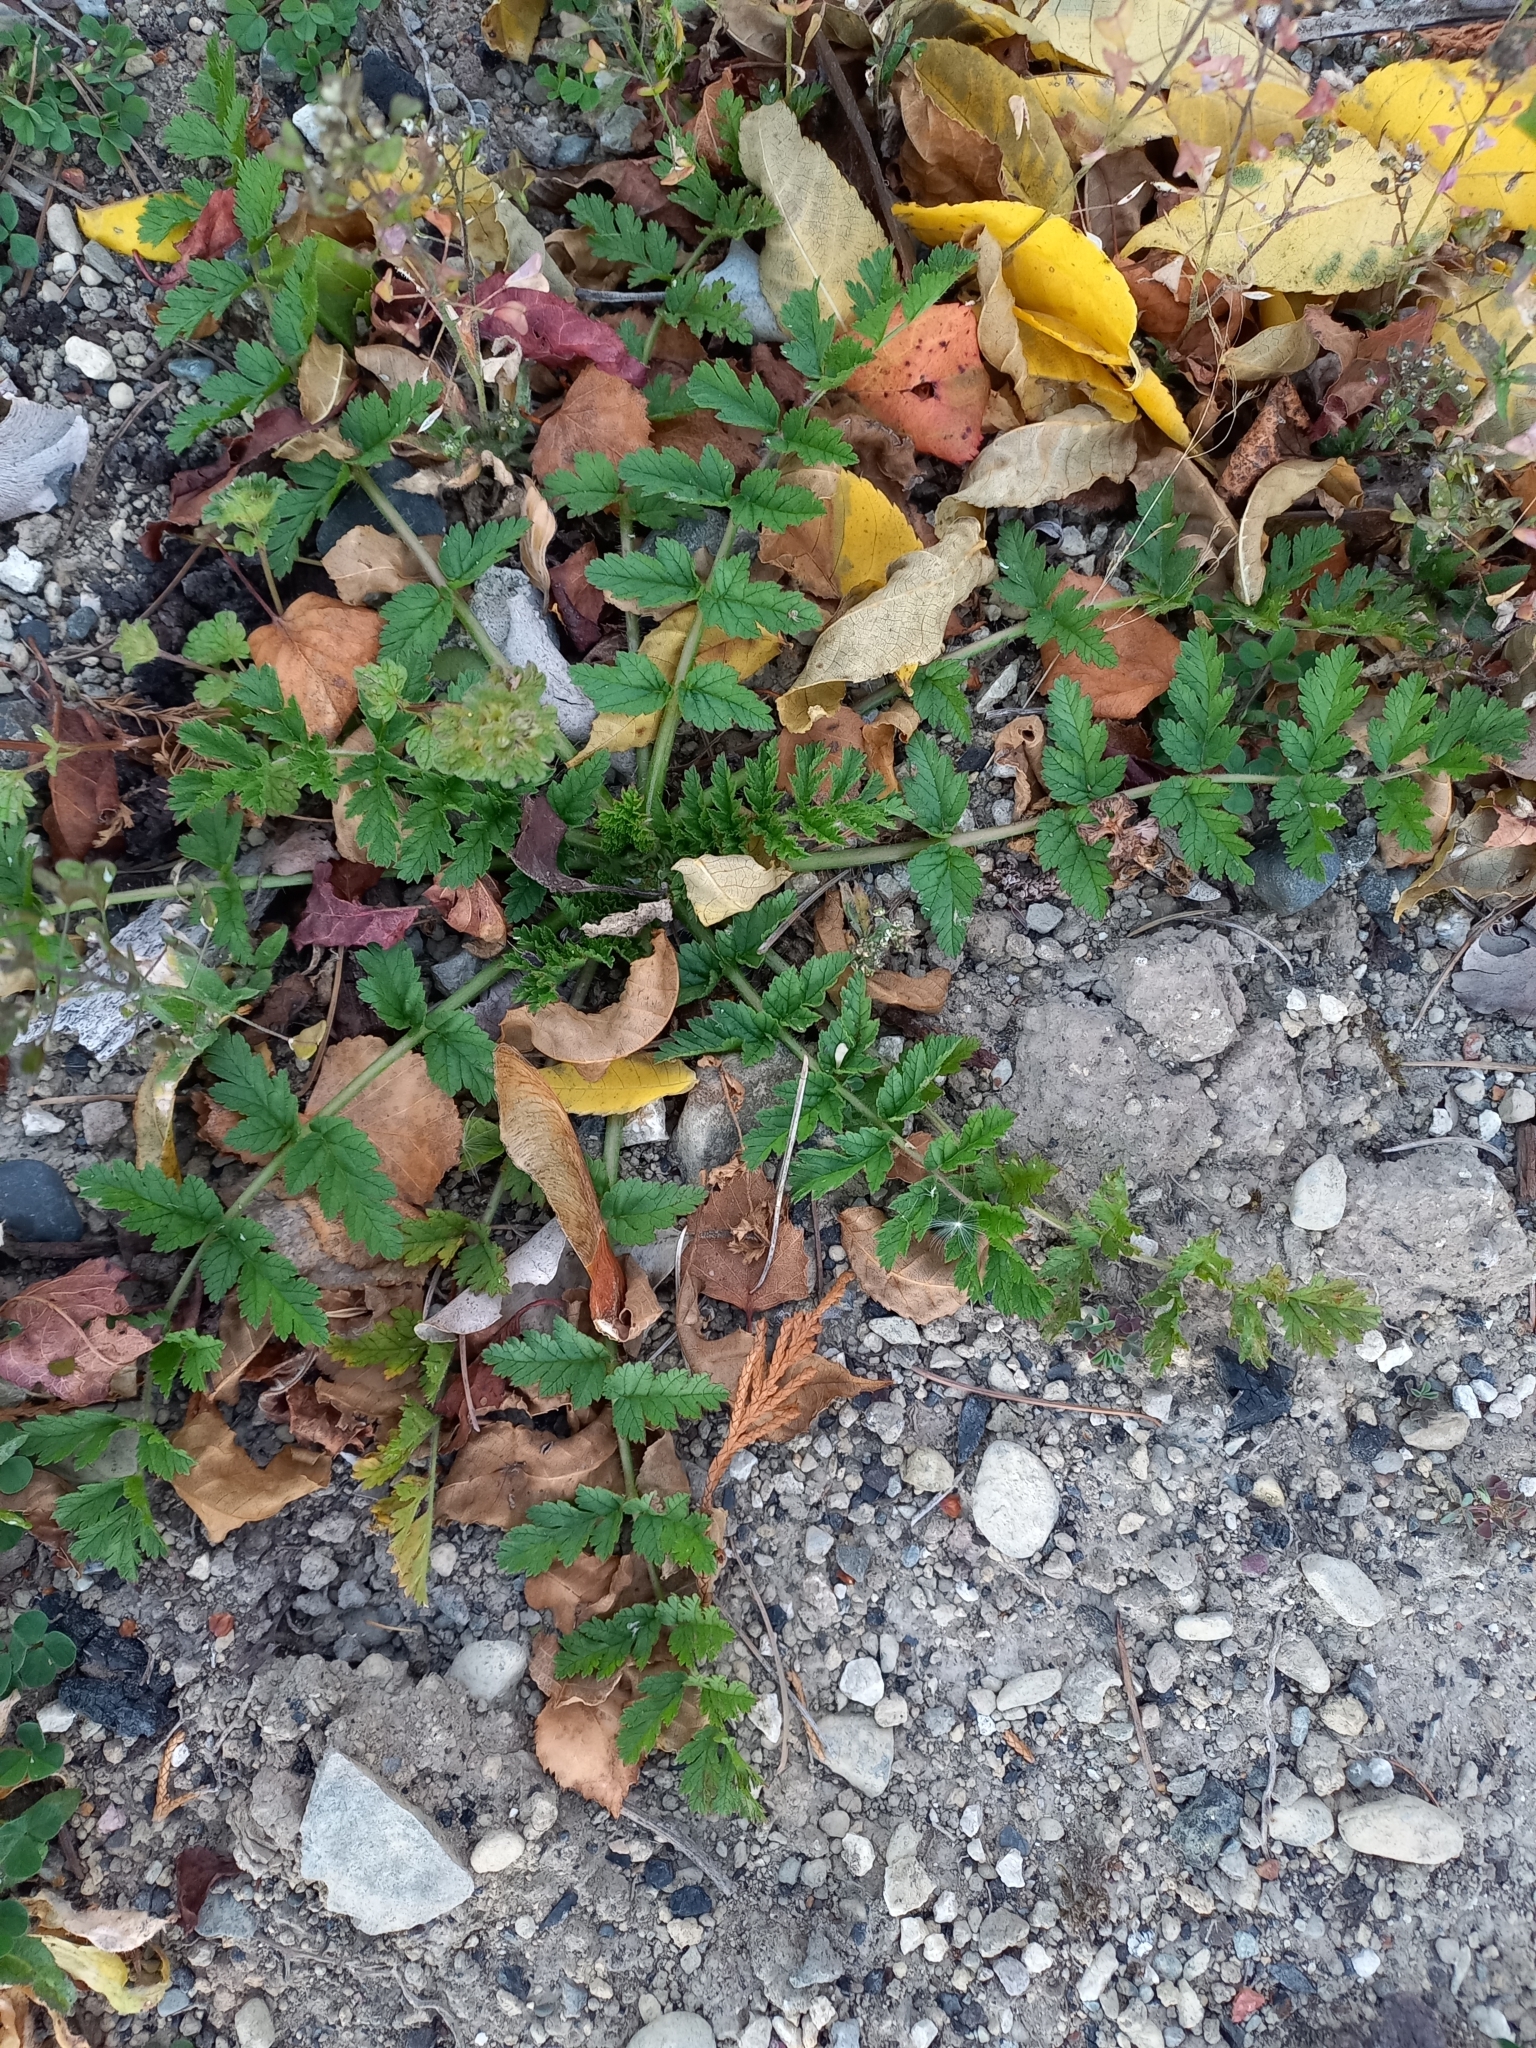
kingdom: Plantae
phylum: Tracheophyta
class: Magnoliopsida
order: Geraniales
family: Geraniaceae
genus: Erodium
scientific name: Erodium moschatum
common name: Musk stork's-bill
